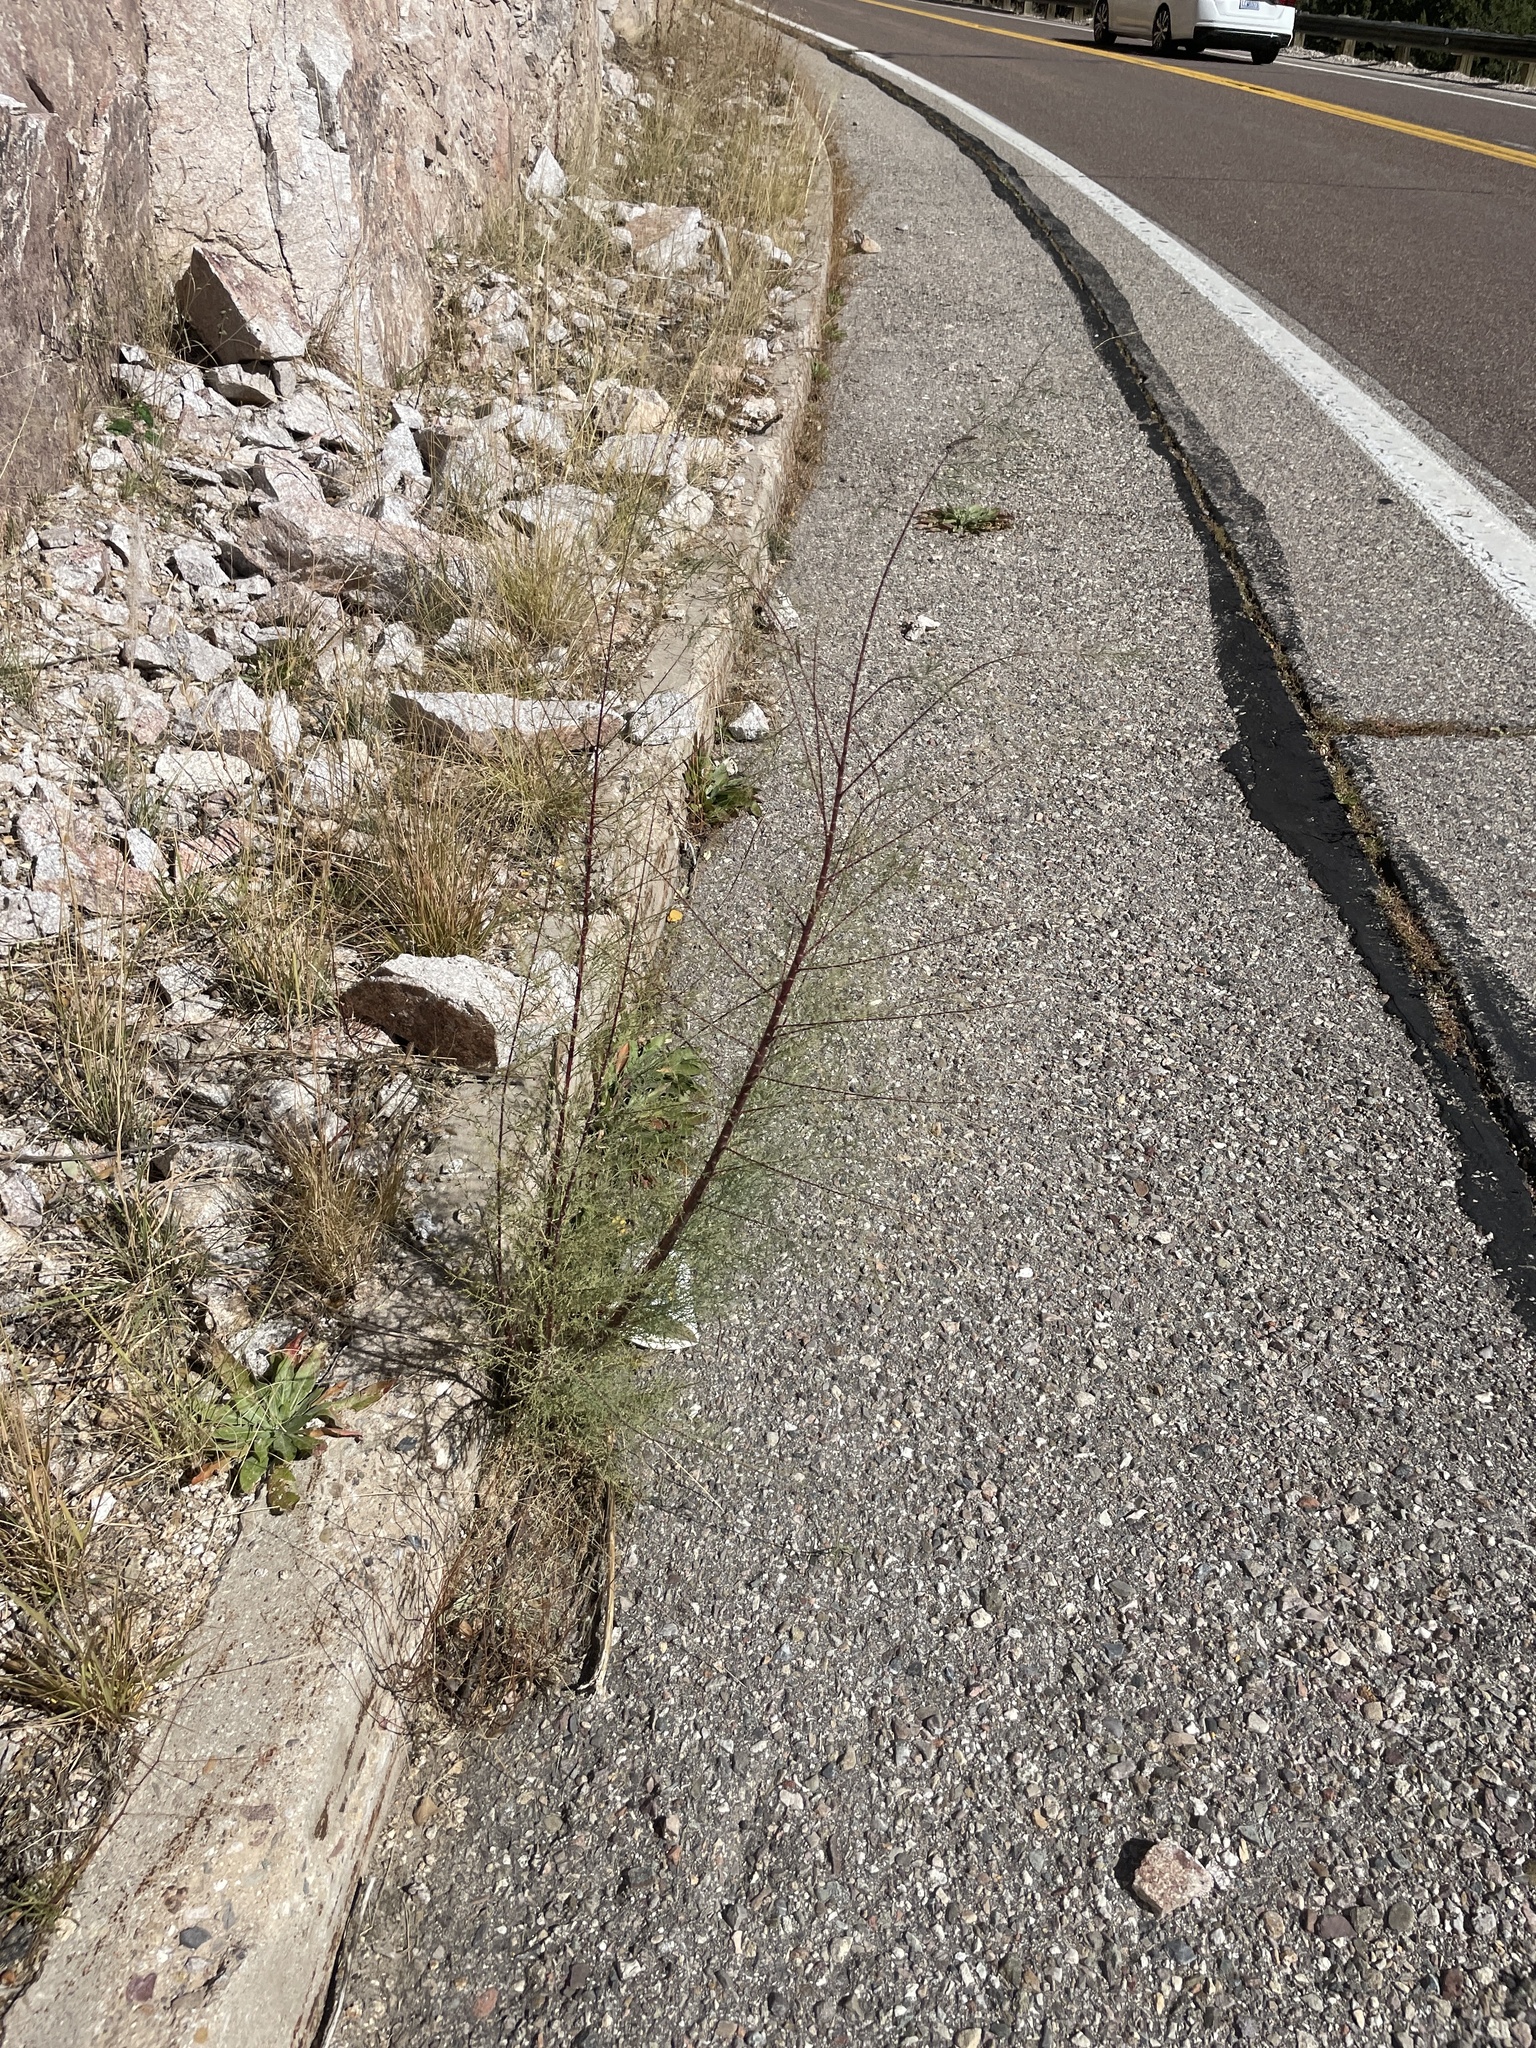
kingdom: Plantae
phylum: Tracheophyta
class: Magnoliopsida
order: Caryophyllales
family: Tamaricaceae
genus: Tamarix
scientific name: Tamarix
